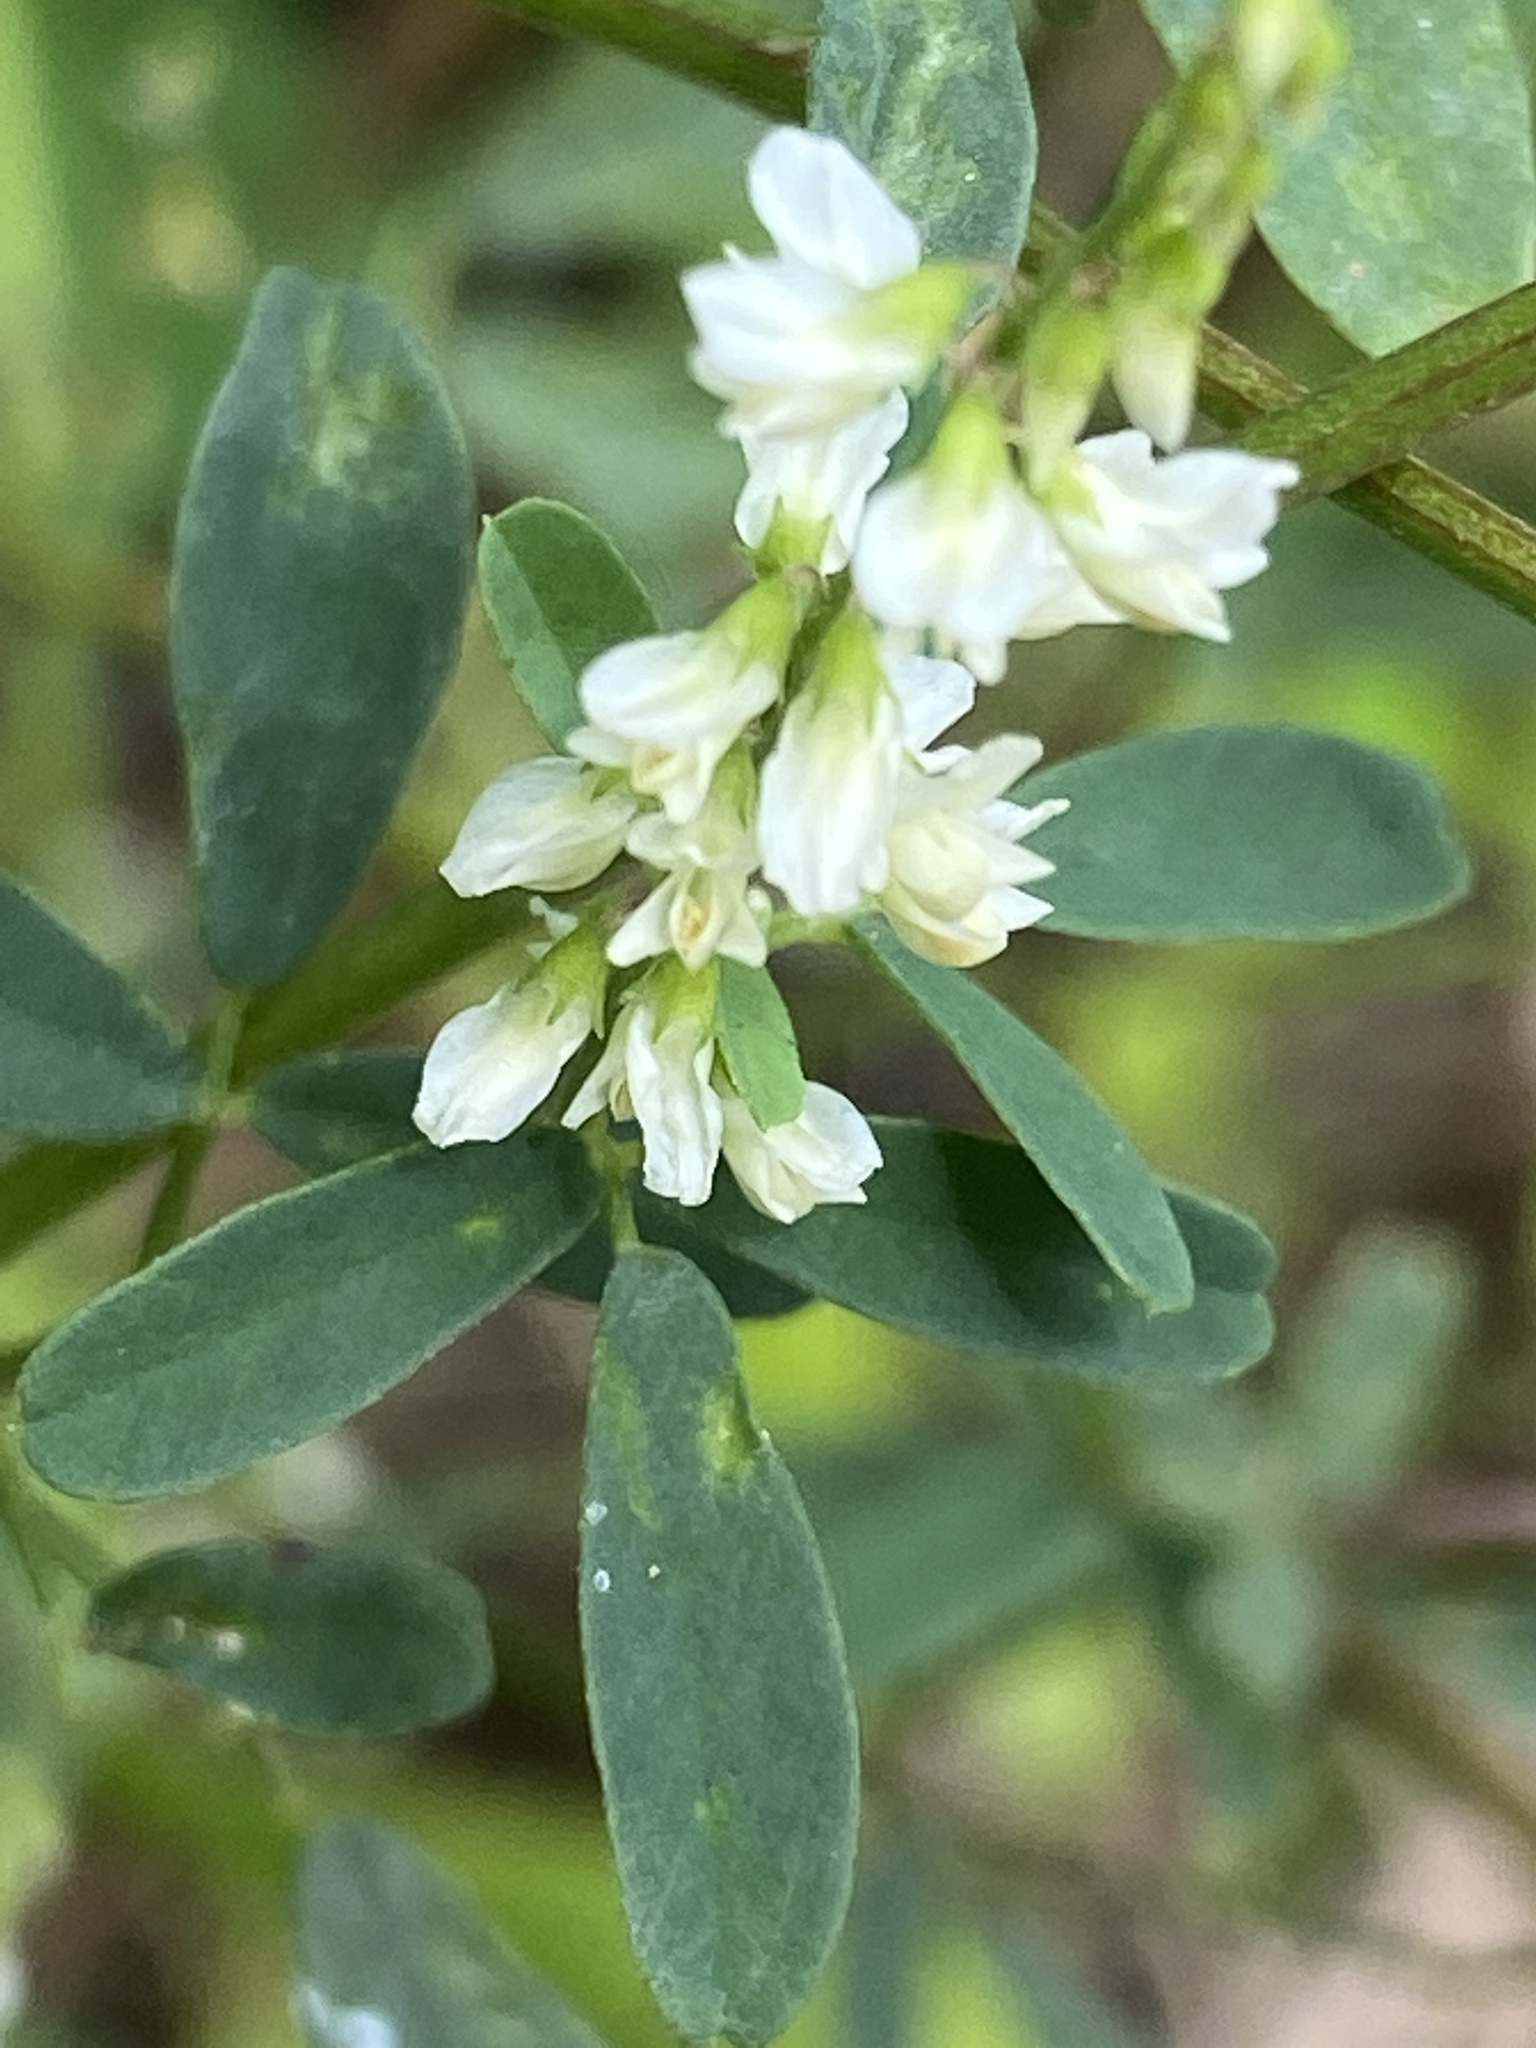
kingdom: Plantae
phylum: Tracheophyta
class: Magnoliopsida
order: Fabales
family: Fabaceae
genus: Melilotus
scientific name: Melilotus albus
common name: White melilot
